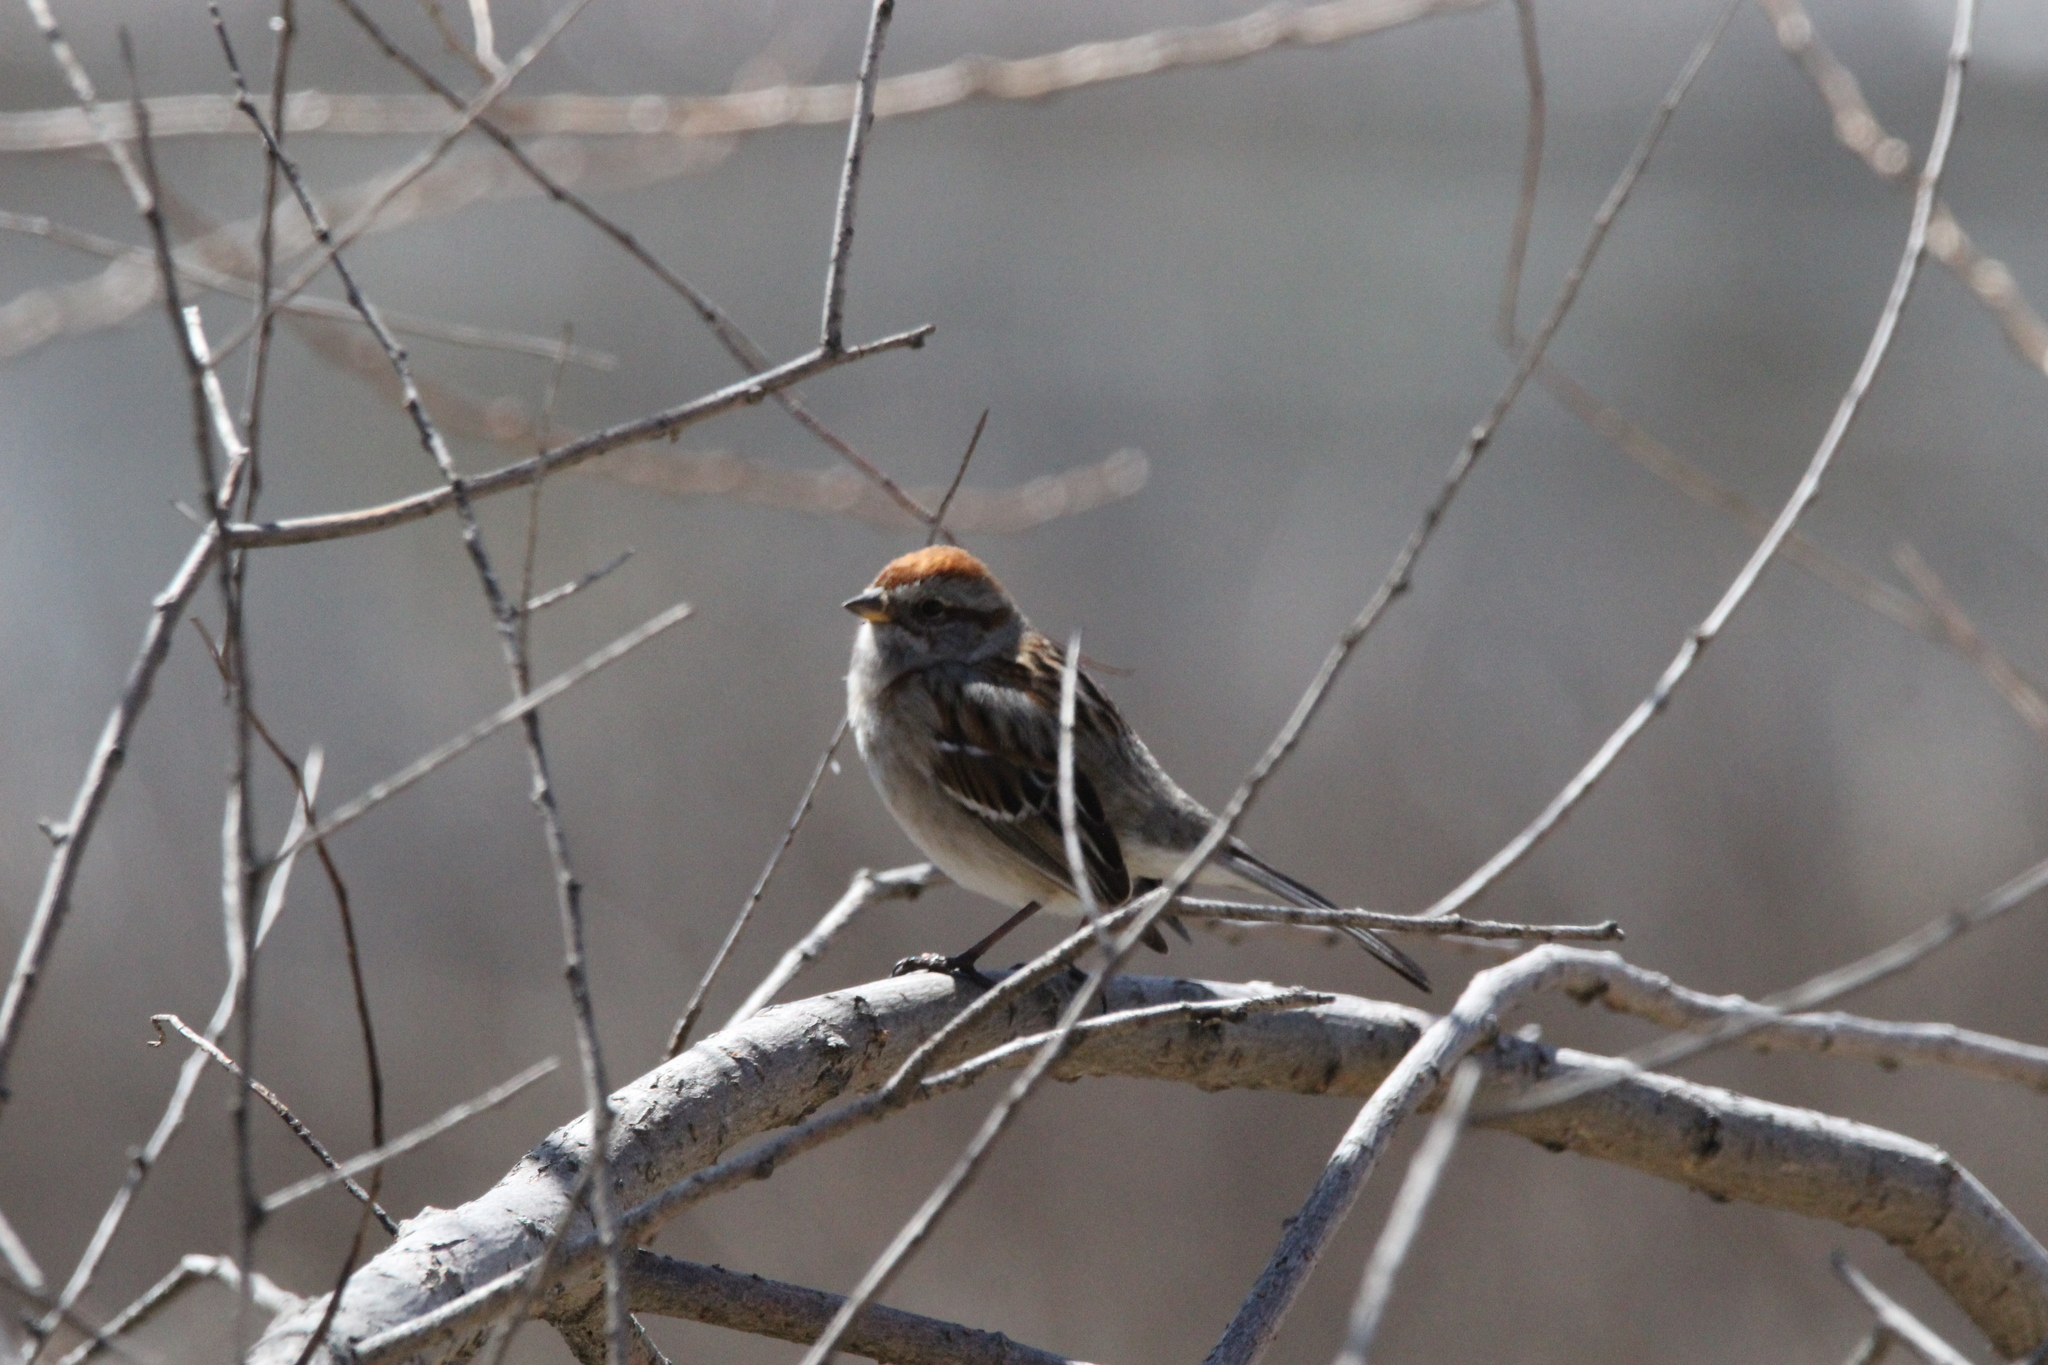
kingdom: Animalia
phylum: Chordata
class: Aves
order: Passeriformes
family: Passerellidae
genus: Spizelloides
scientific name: Spizelloides arborea
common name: American tree sparrow
